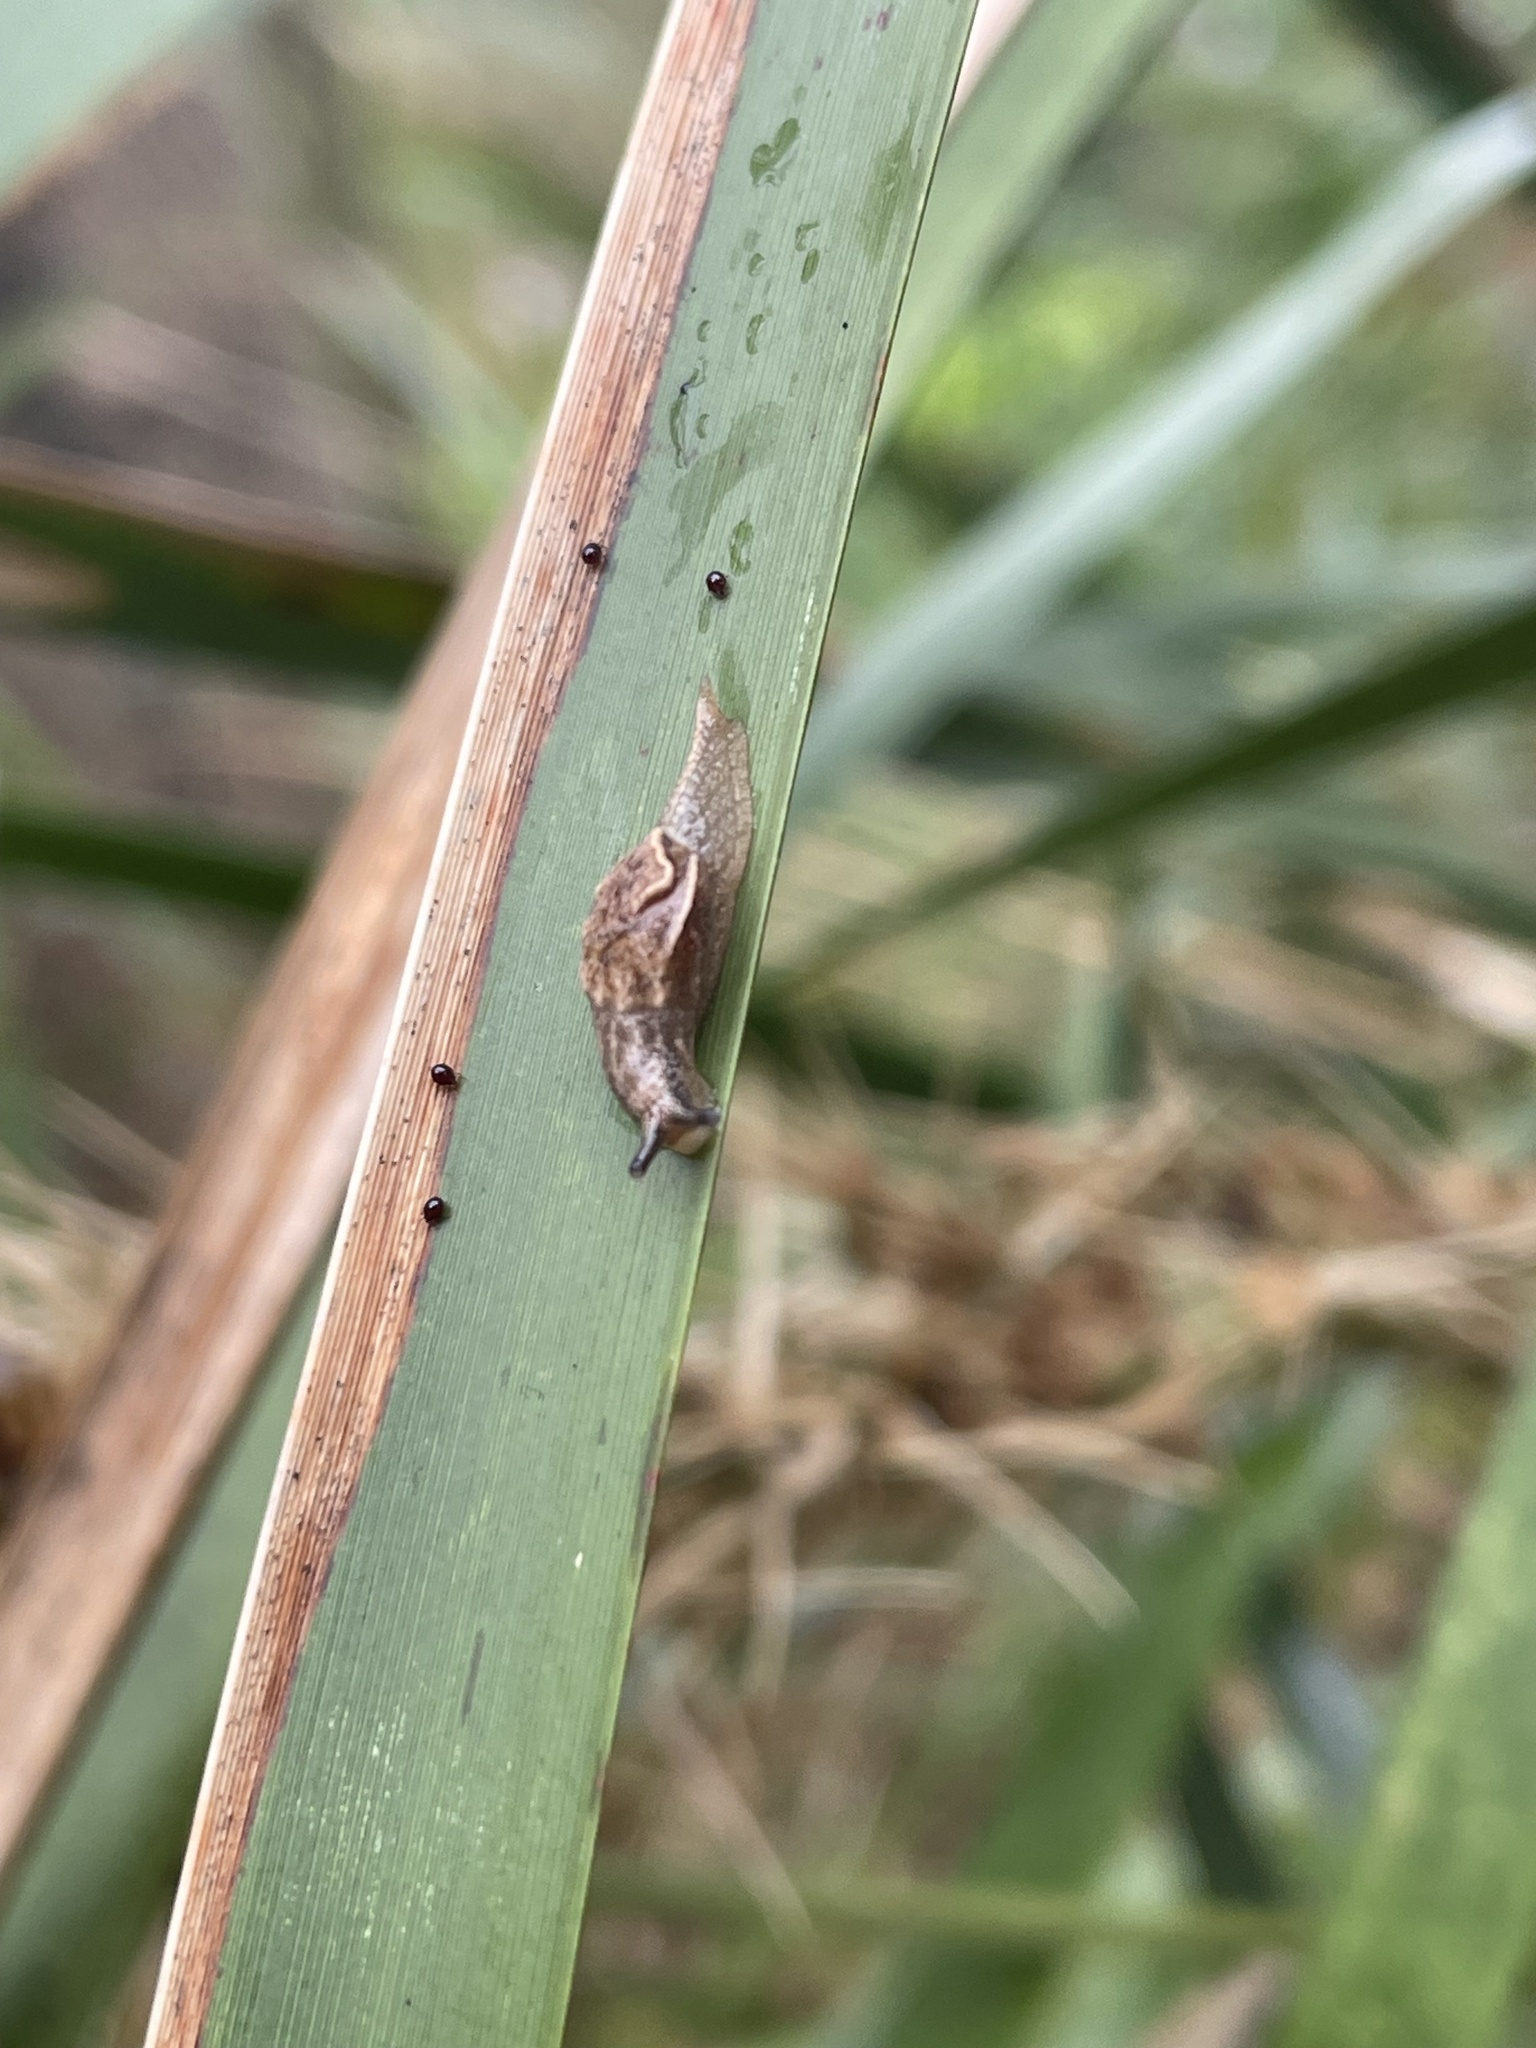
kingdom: Animalia
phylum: Mollusca
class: Gastropoda
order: Stylommatophora
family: Helicarionidae
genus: Ubiquitarion
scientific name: Ubiquitarion iridis
